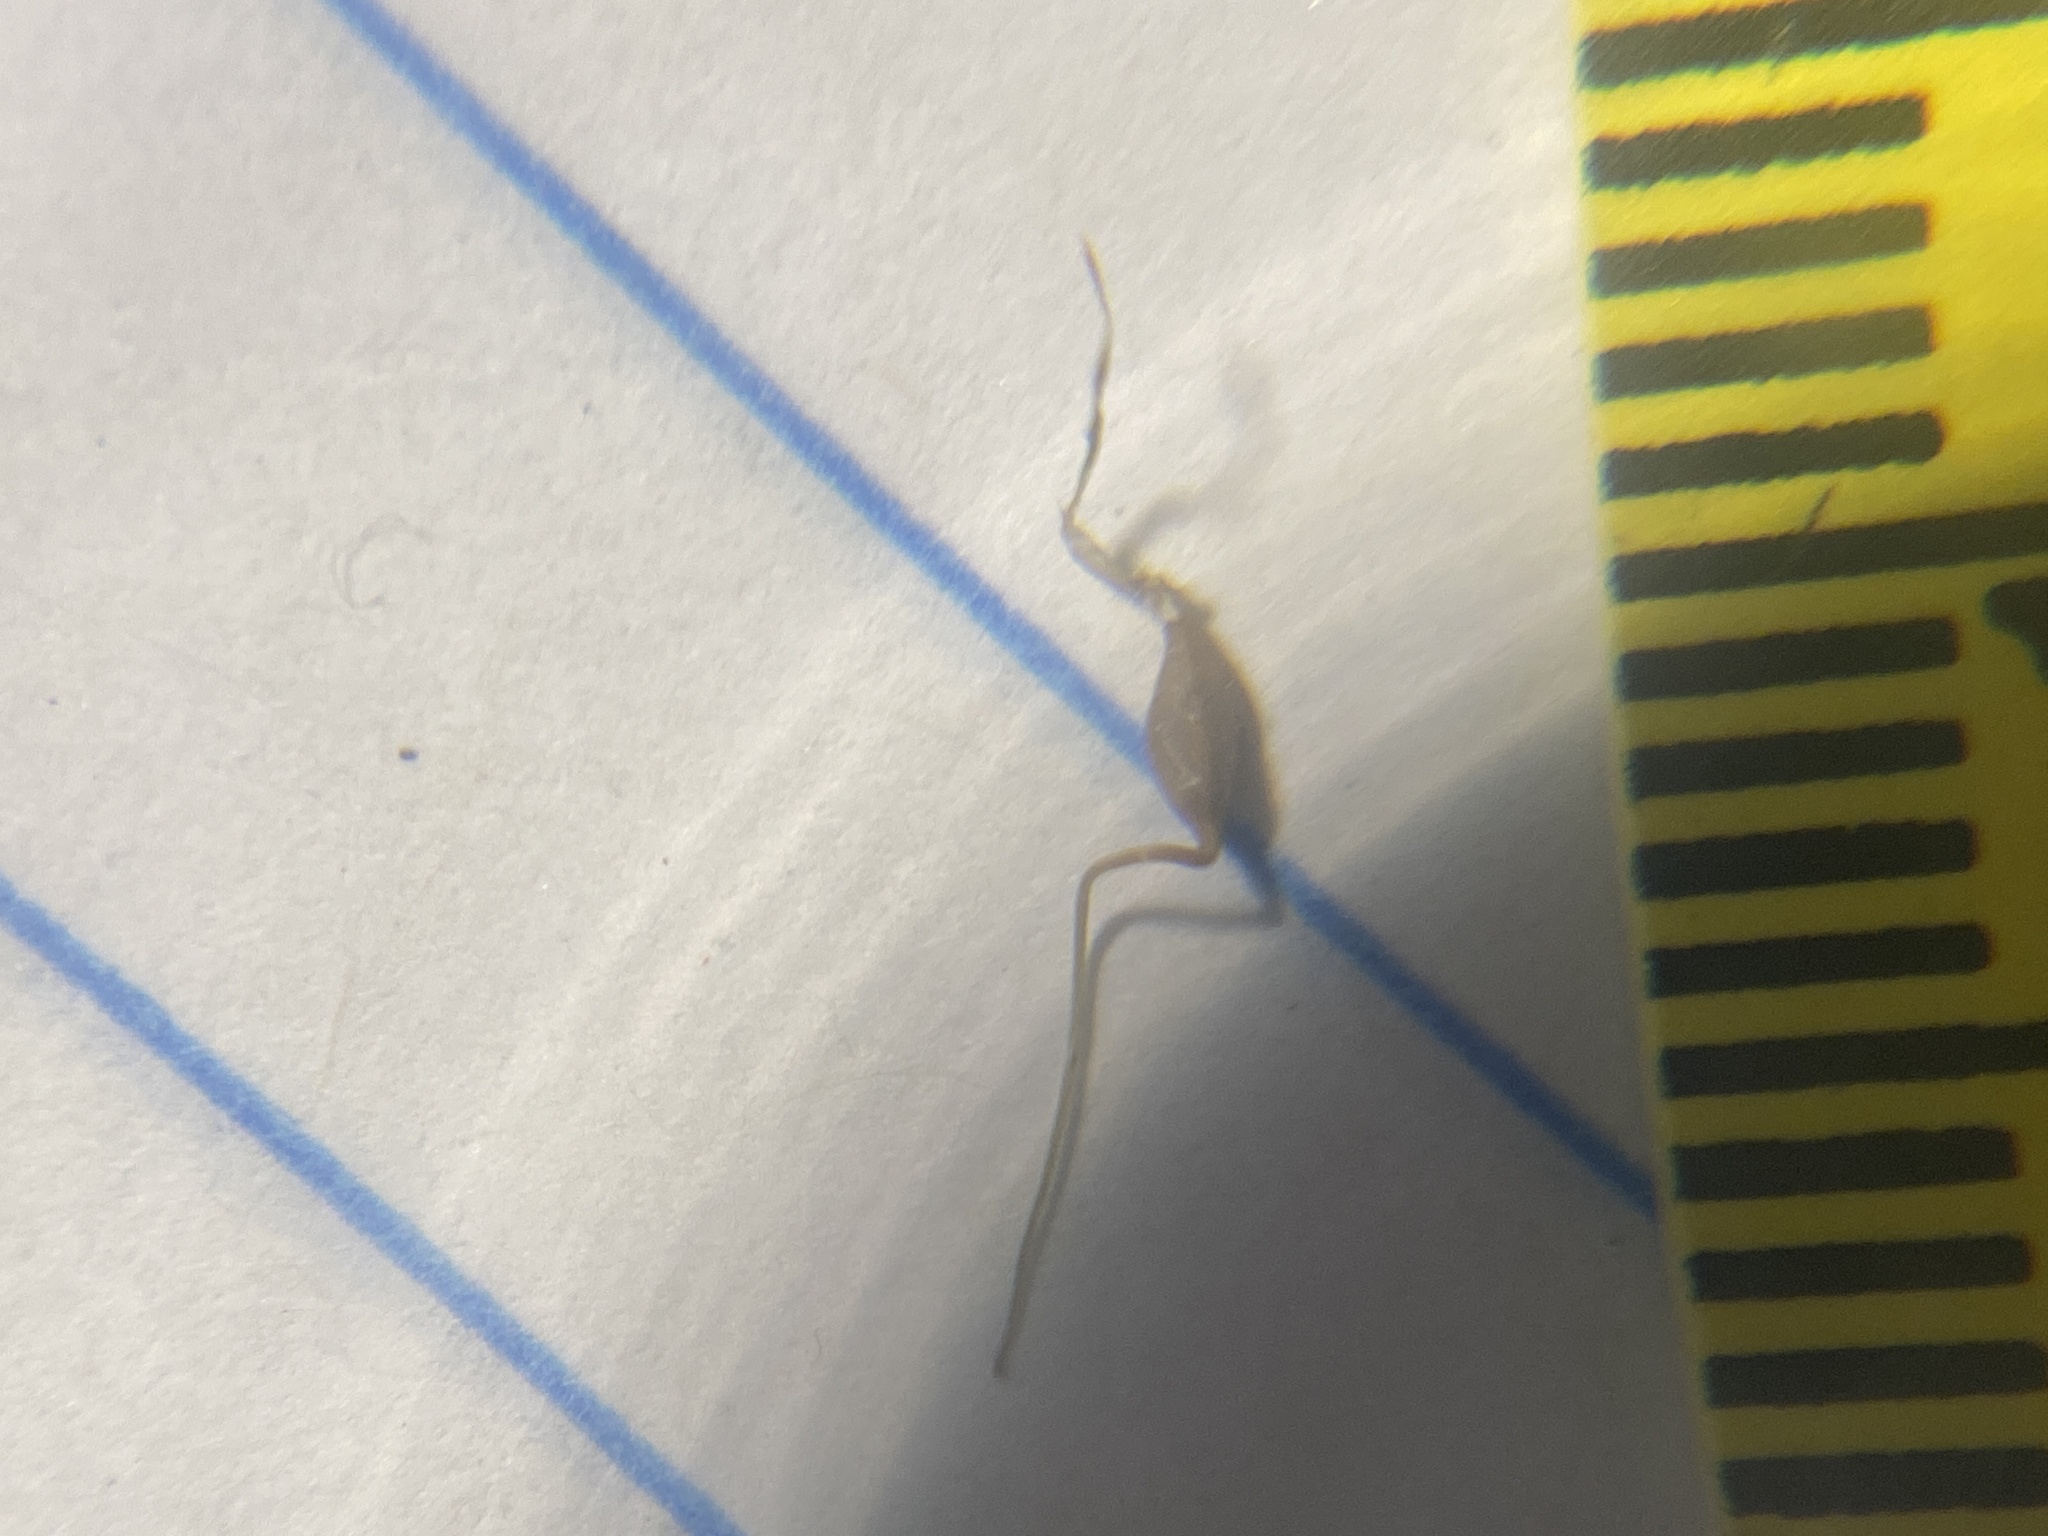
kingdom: Plantae
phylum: Tracheophyta
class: Liliopsida
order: Poales
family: Cyperaceae
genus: Carex
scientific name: Carex lurida
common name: Sallow sedge
